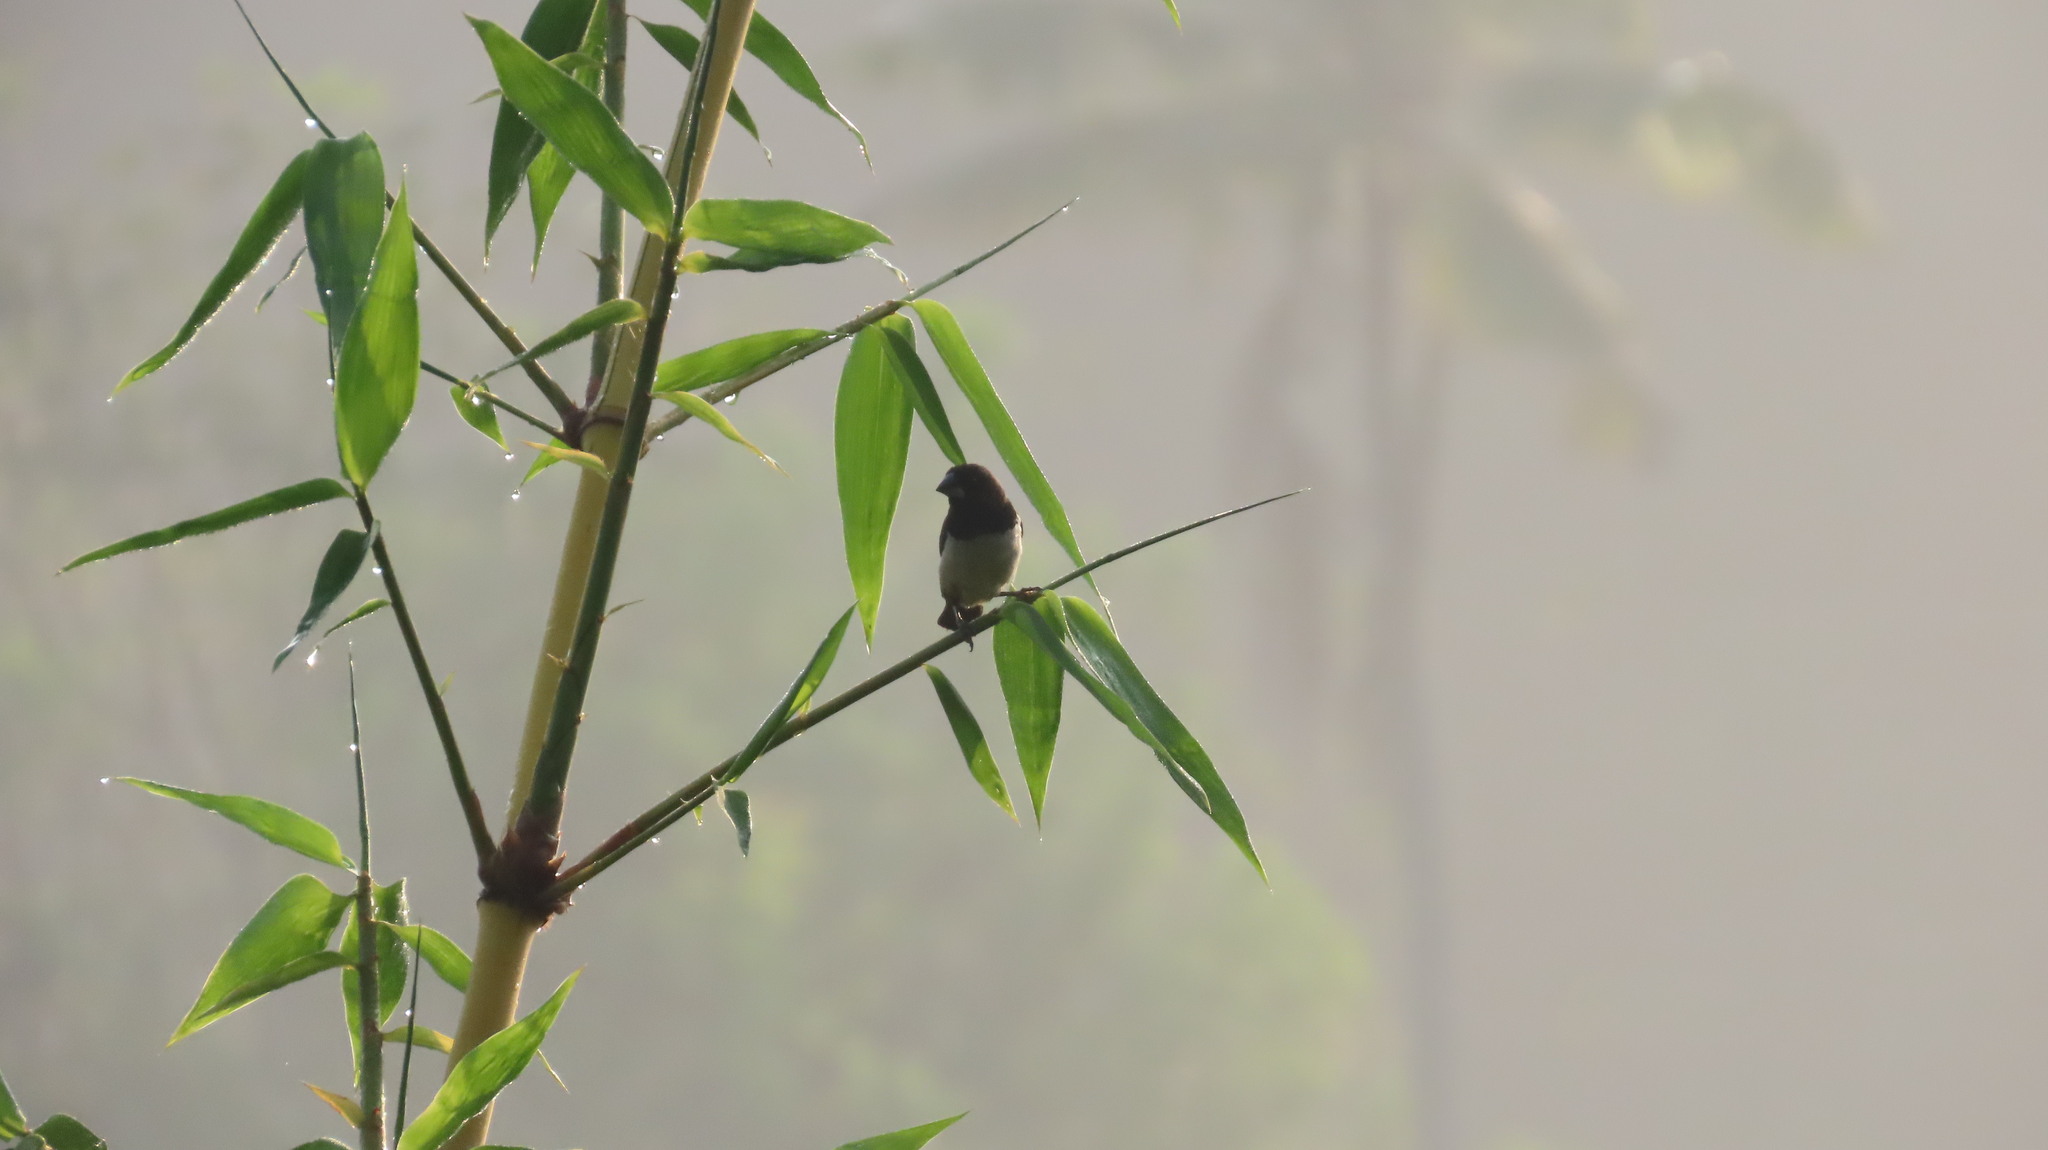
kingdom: Animalia
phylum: Chordata
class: Aves
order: Passeriformes
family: Estrildidae
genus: Lonchura
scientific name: Lonchura striata
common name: White-rumped munia
